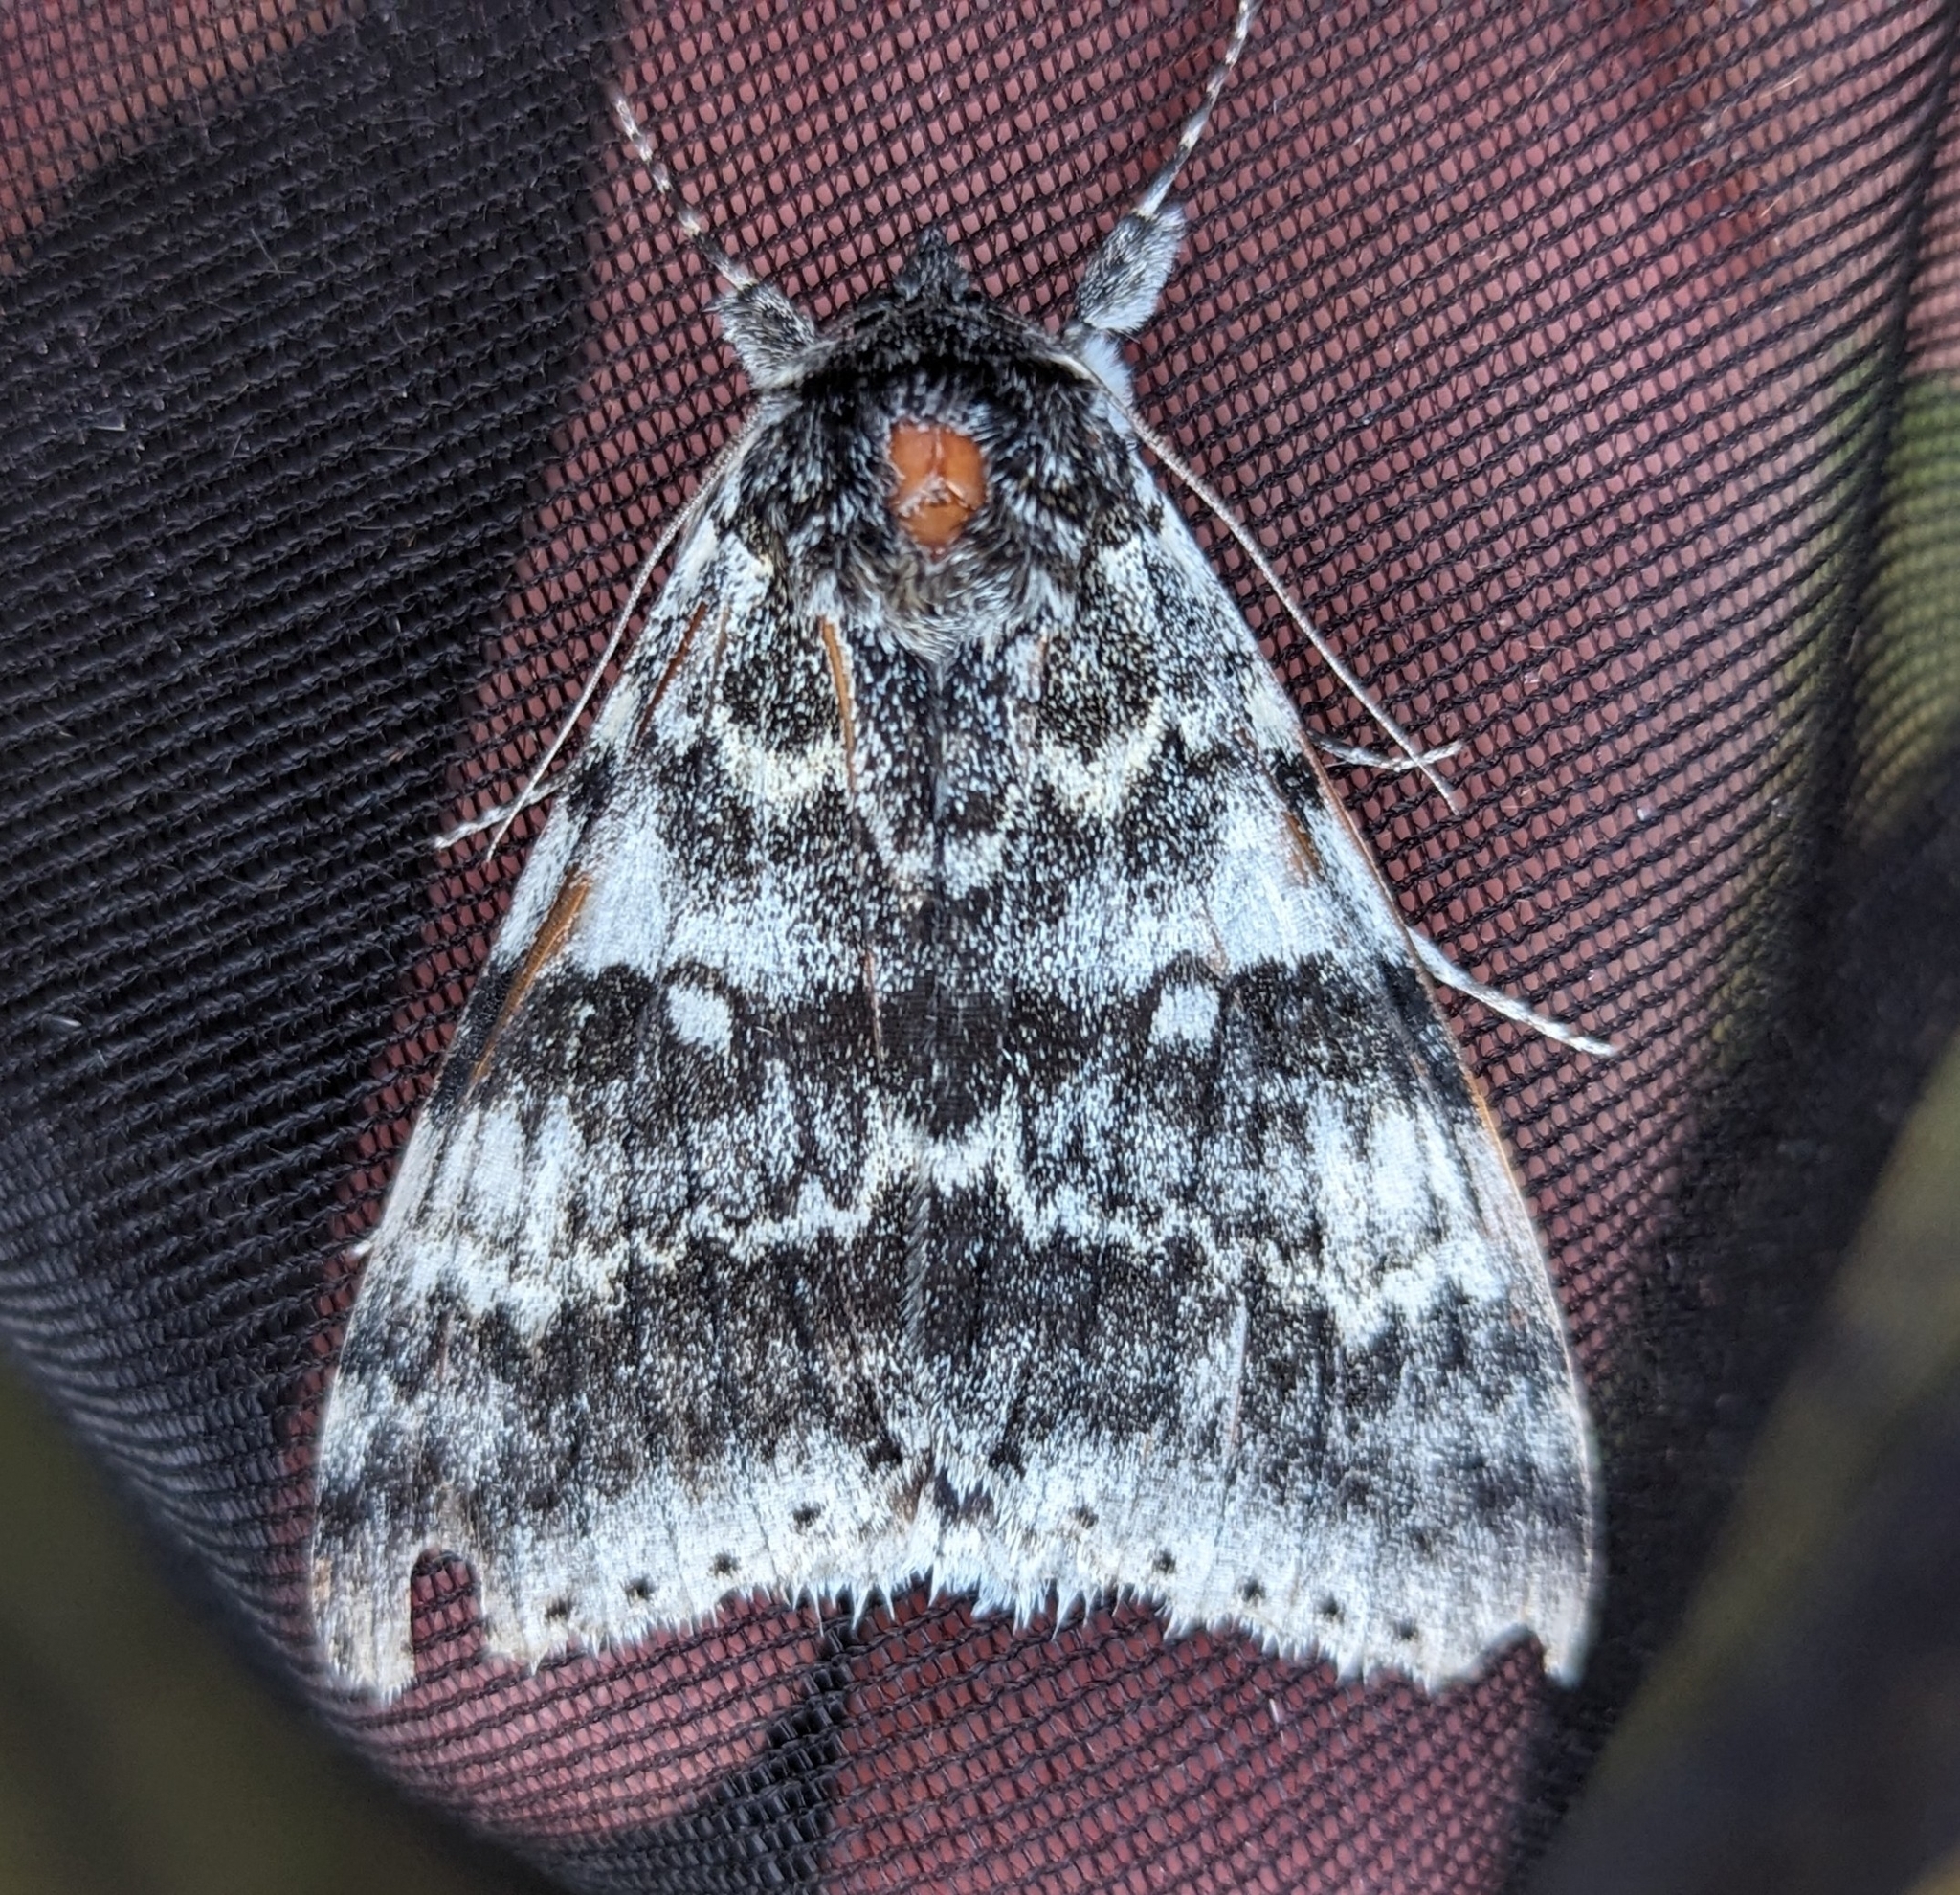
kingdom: Animalia
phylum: Arthropoda
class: Insecta
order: Lepidoptera
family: Erebidae
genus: Catocala
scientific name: Catocala relicta
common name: White underwing
